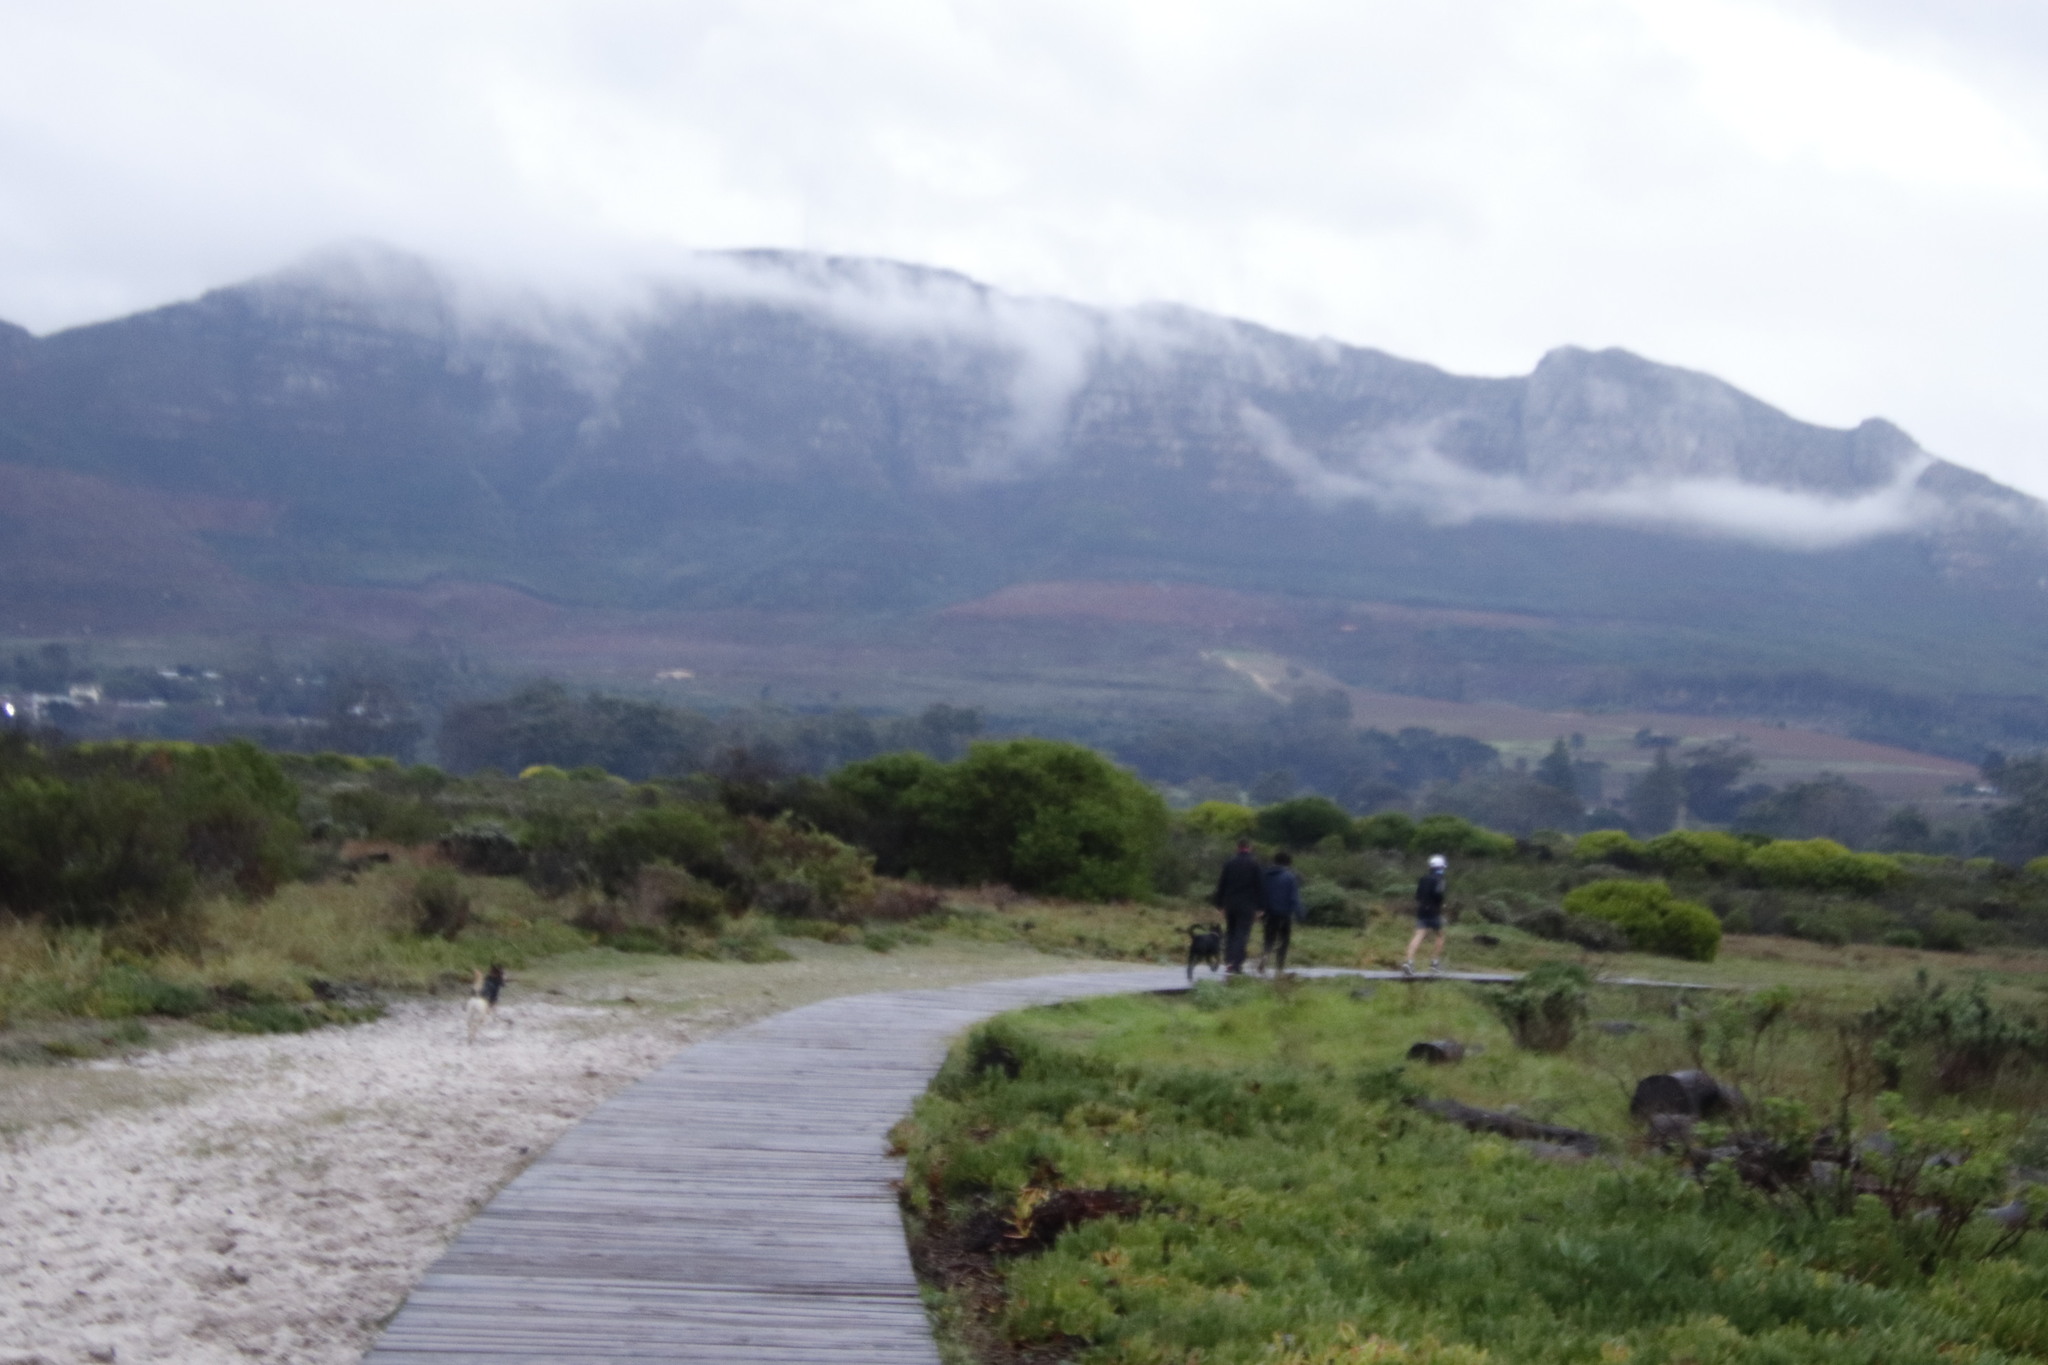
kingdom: Plantae
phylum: Tracheophyta
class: Magnoliopsida
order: Caryophyllales
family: Aizoaceae
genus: Carpobrotus
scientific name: Carpobrotus edulis
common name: Hottentot-fig
